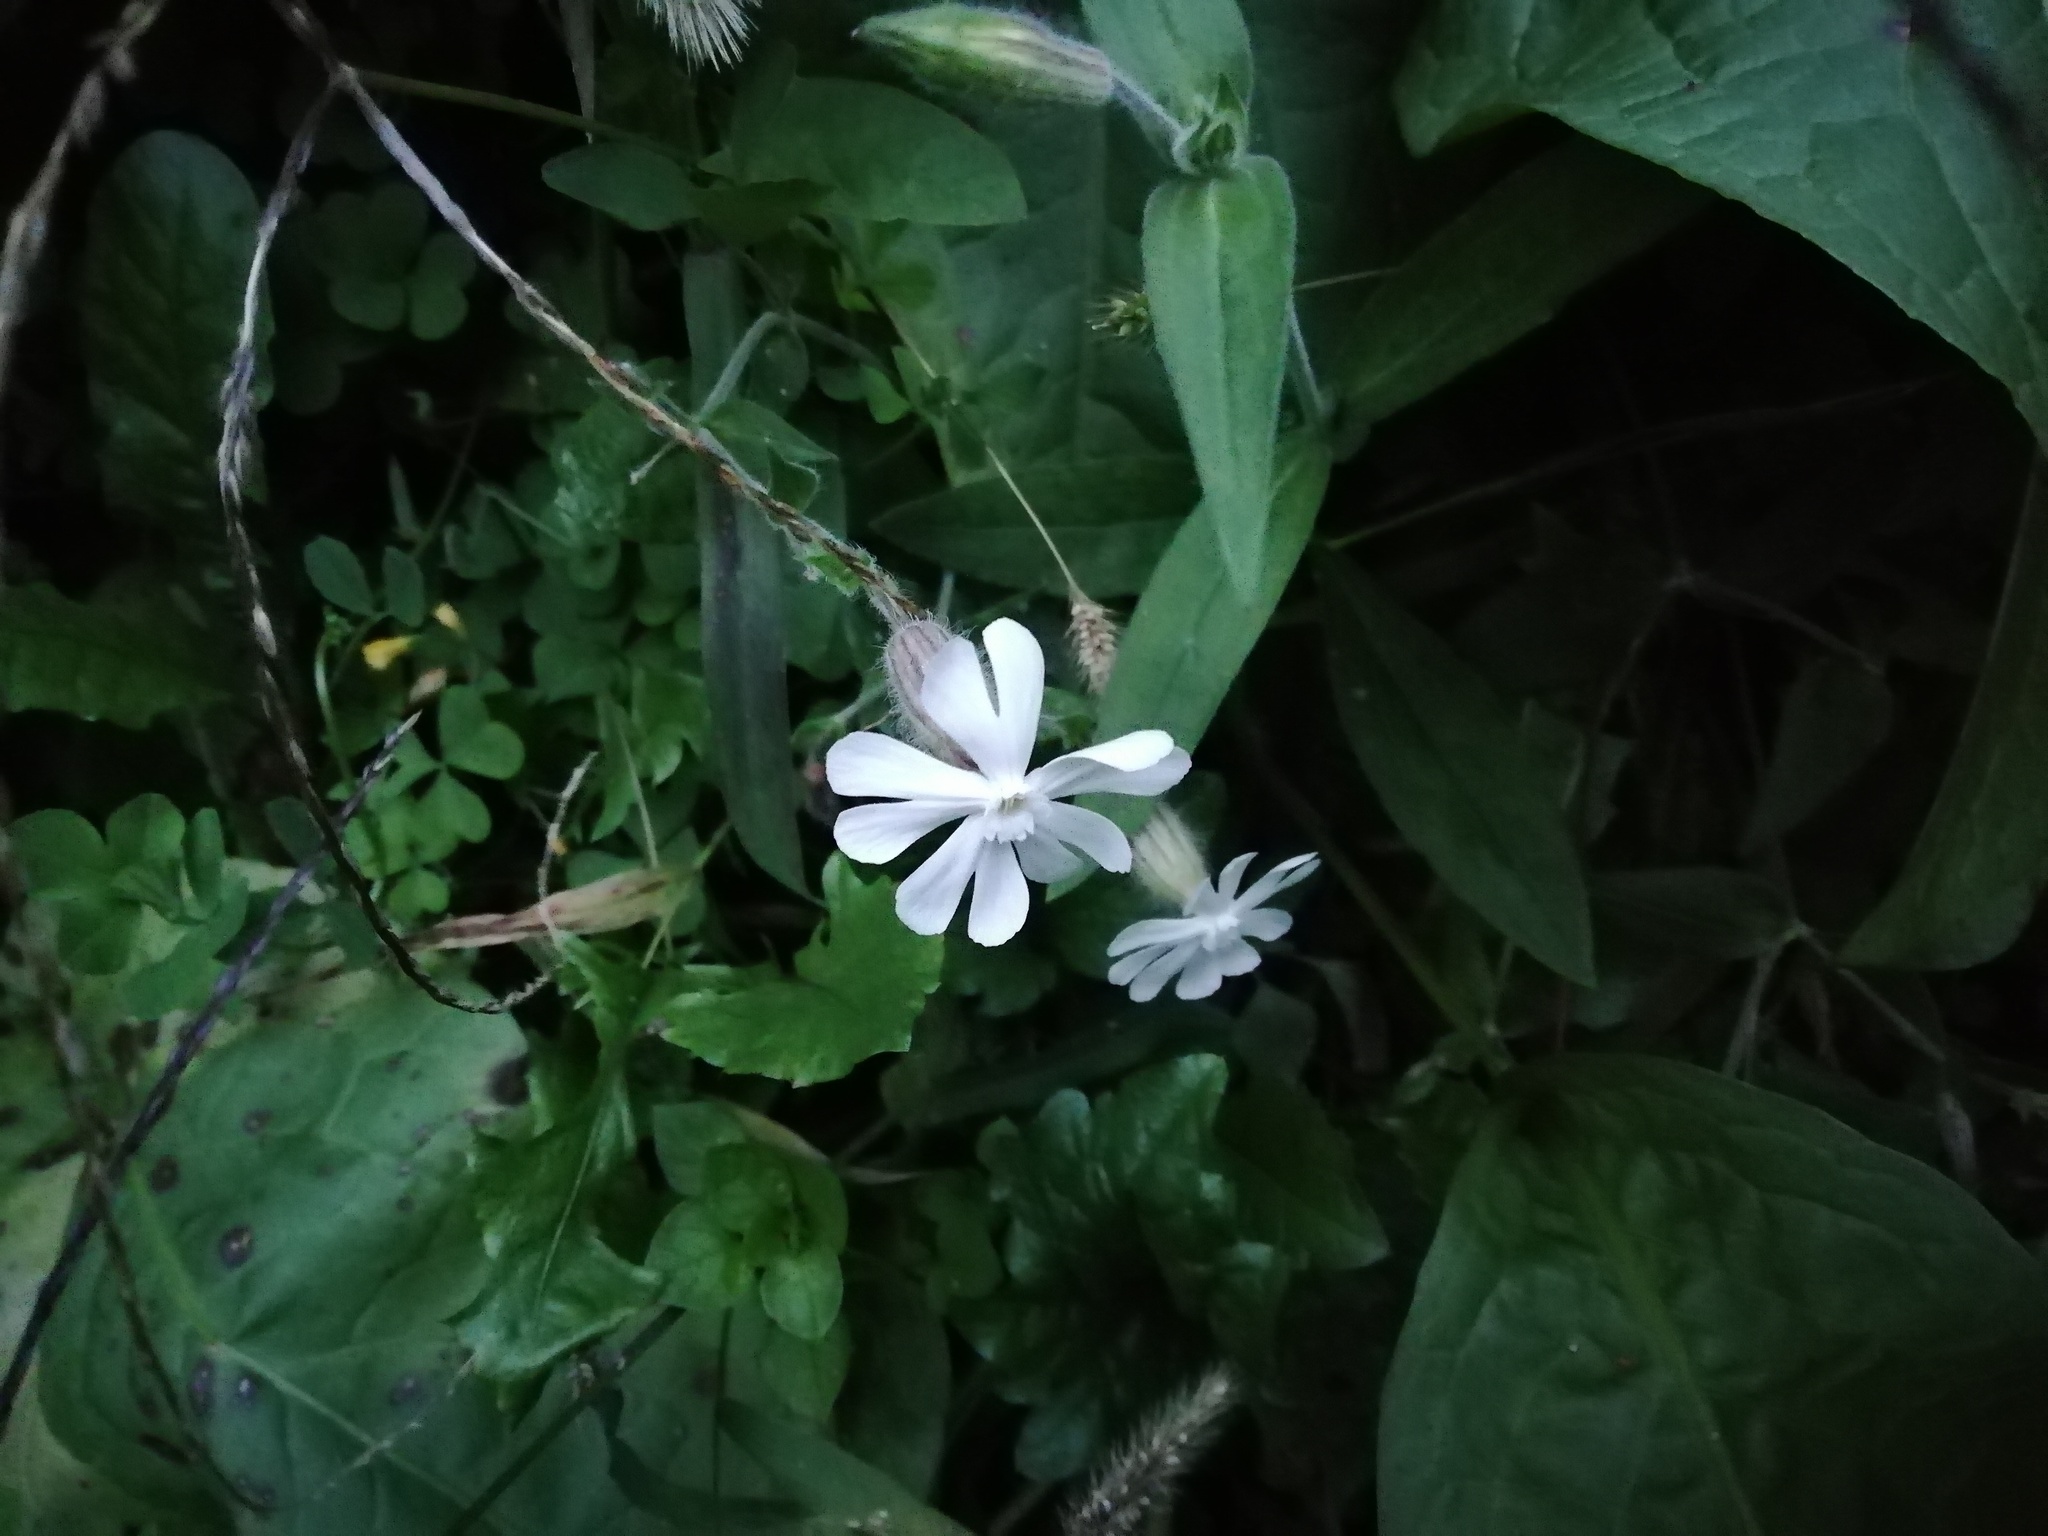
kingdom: Plantae
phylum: Tracheophyta
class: Magnoliopsida
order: Caryophyllales
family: Caryophyllaceae
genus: Silene
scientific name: Silene latifolia
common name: White campion
